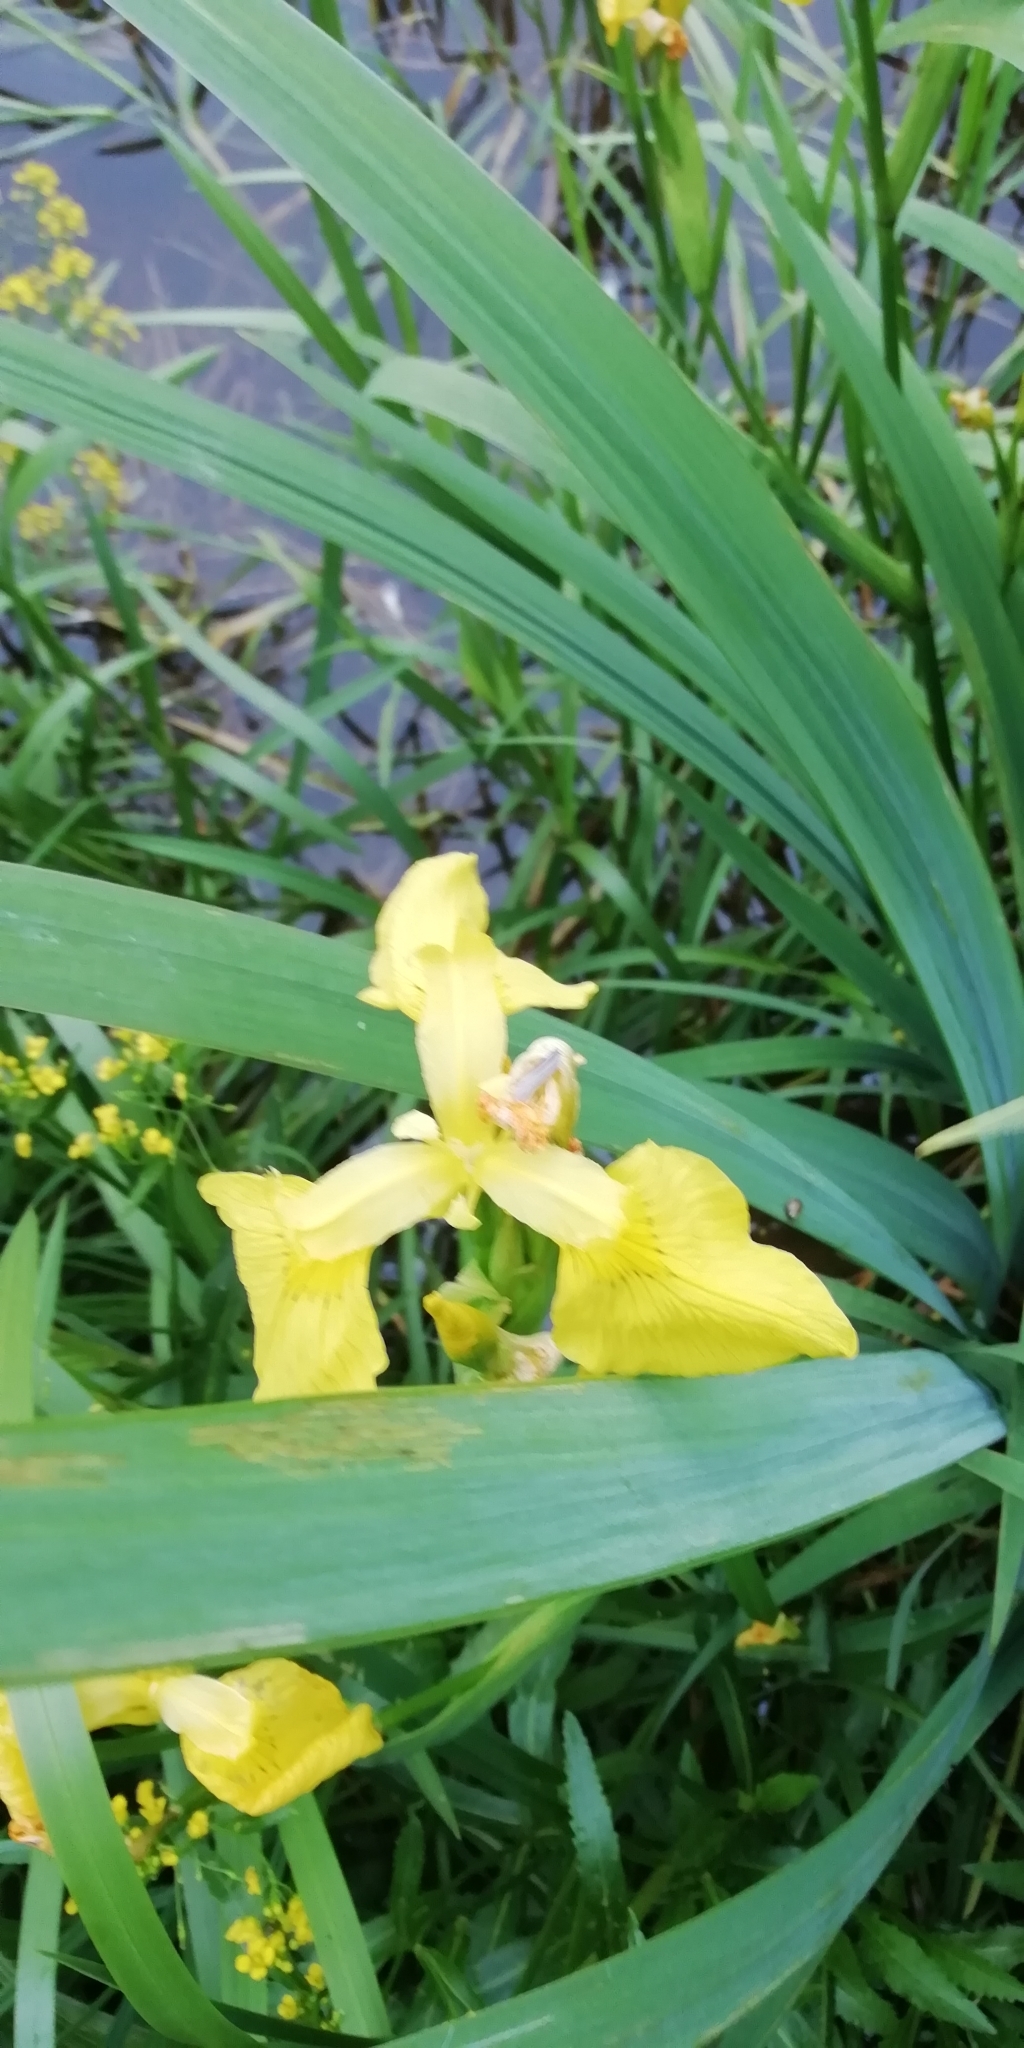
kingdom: Plantae
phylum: Tracheophyta
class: Liliopsida
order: Asparagales
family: Iridaceae
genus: Iris
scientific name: Iris pseudacorus
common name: Yellow flag
